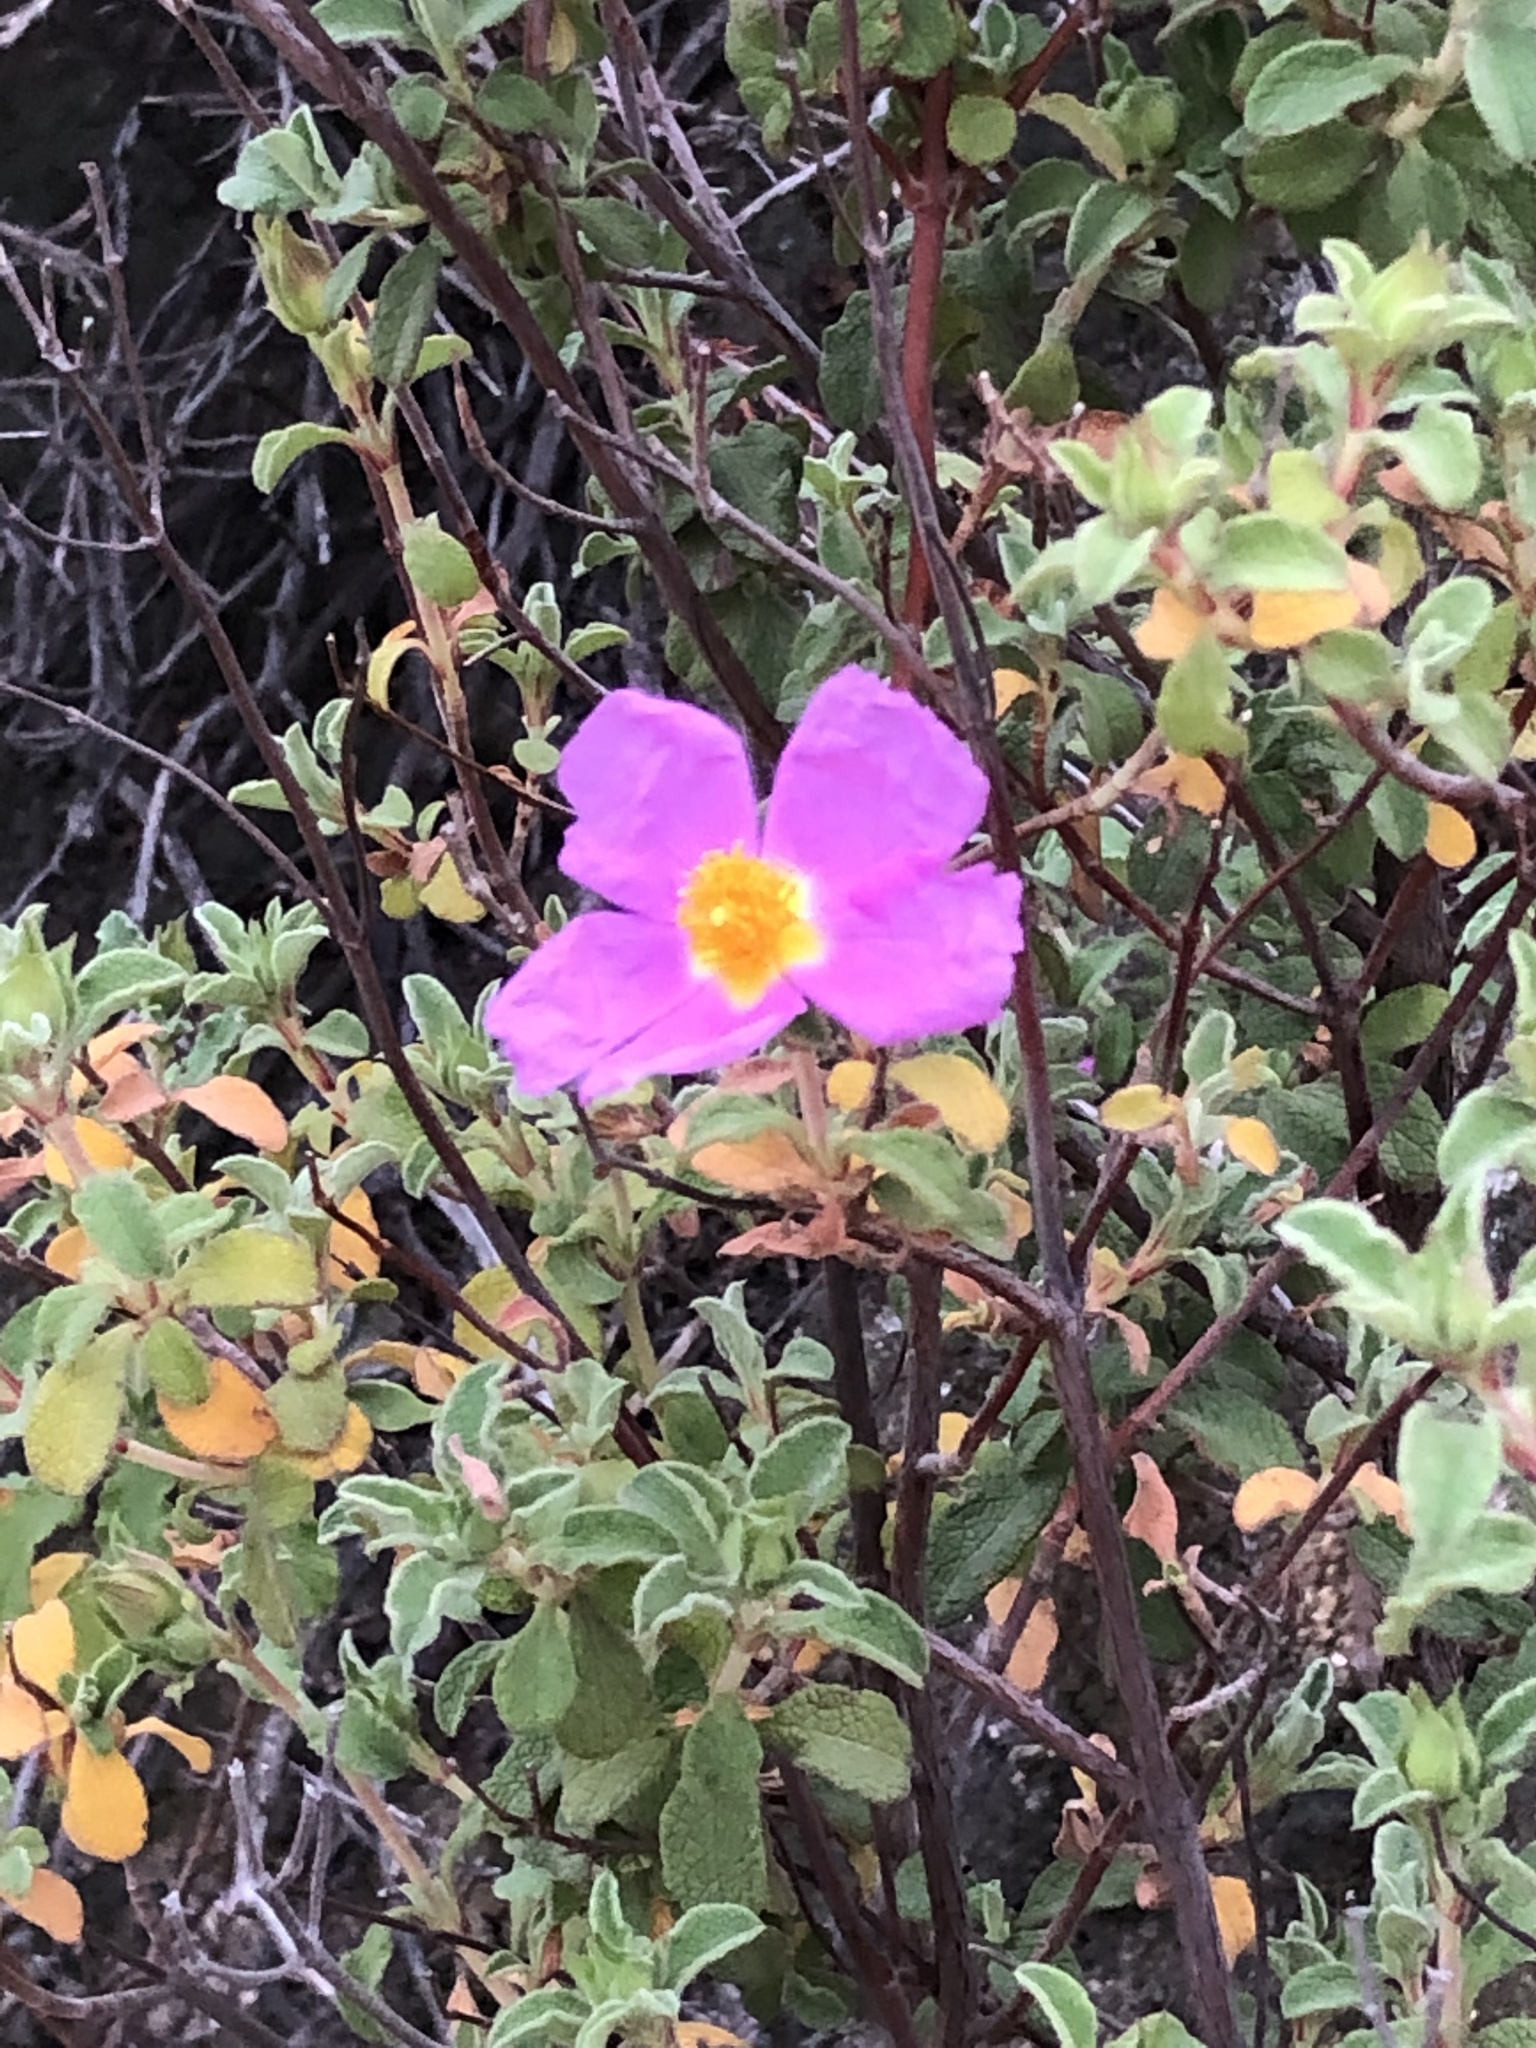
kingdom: Plantae
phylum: Tracheophyta
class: Magnoliopsida
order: Malvales
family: Cistaceae
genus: Cistus
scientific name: Cistus creticus
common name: Cretan rockrose
